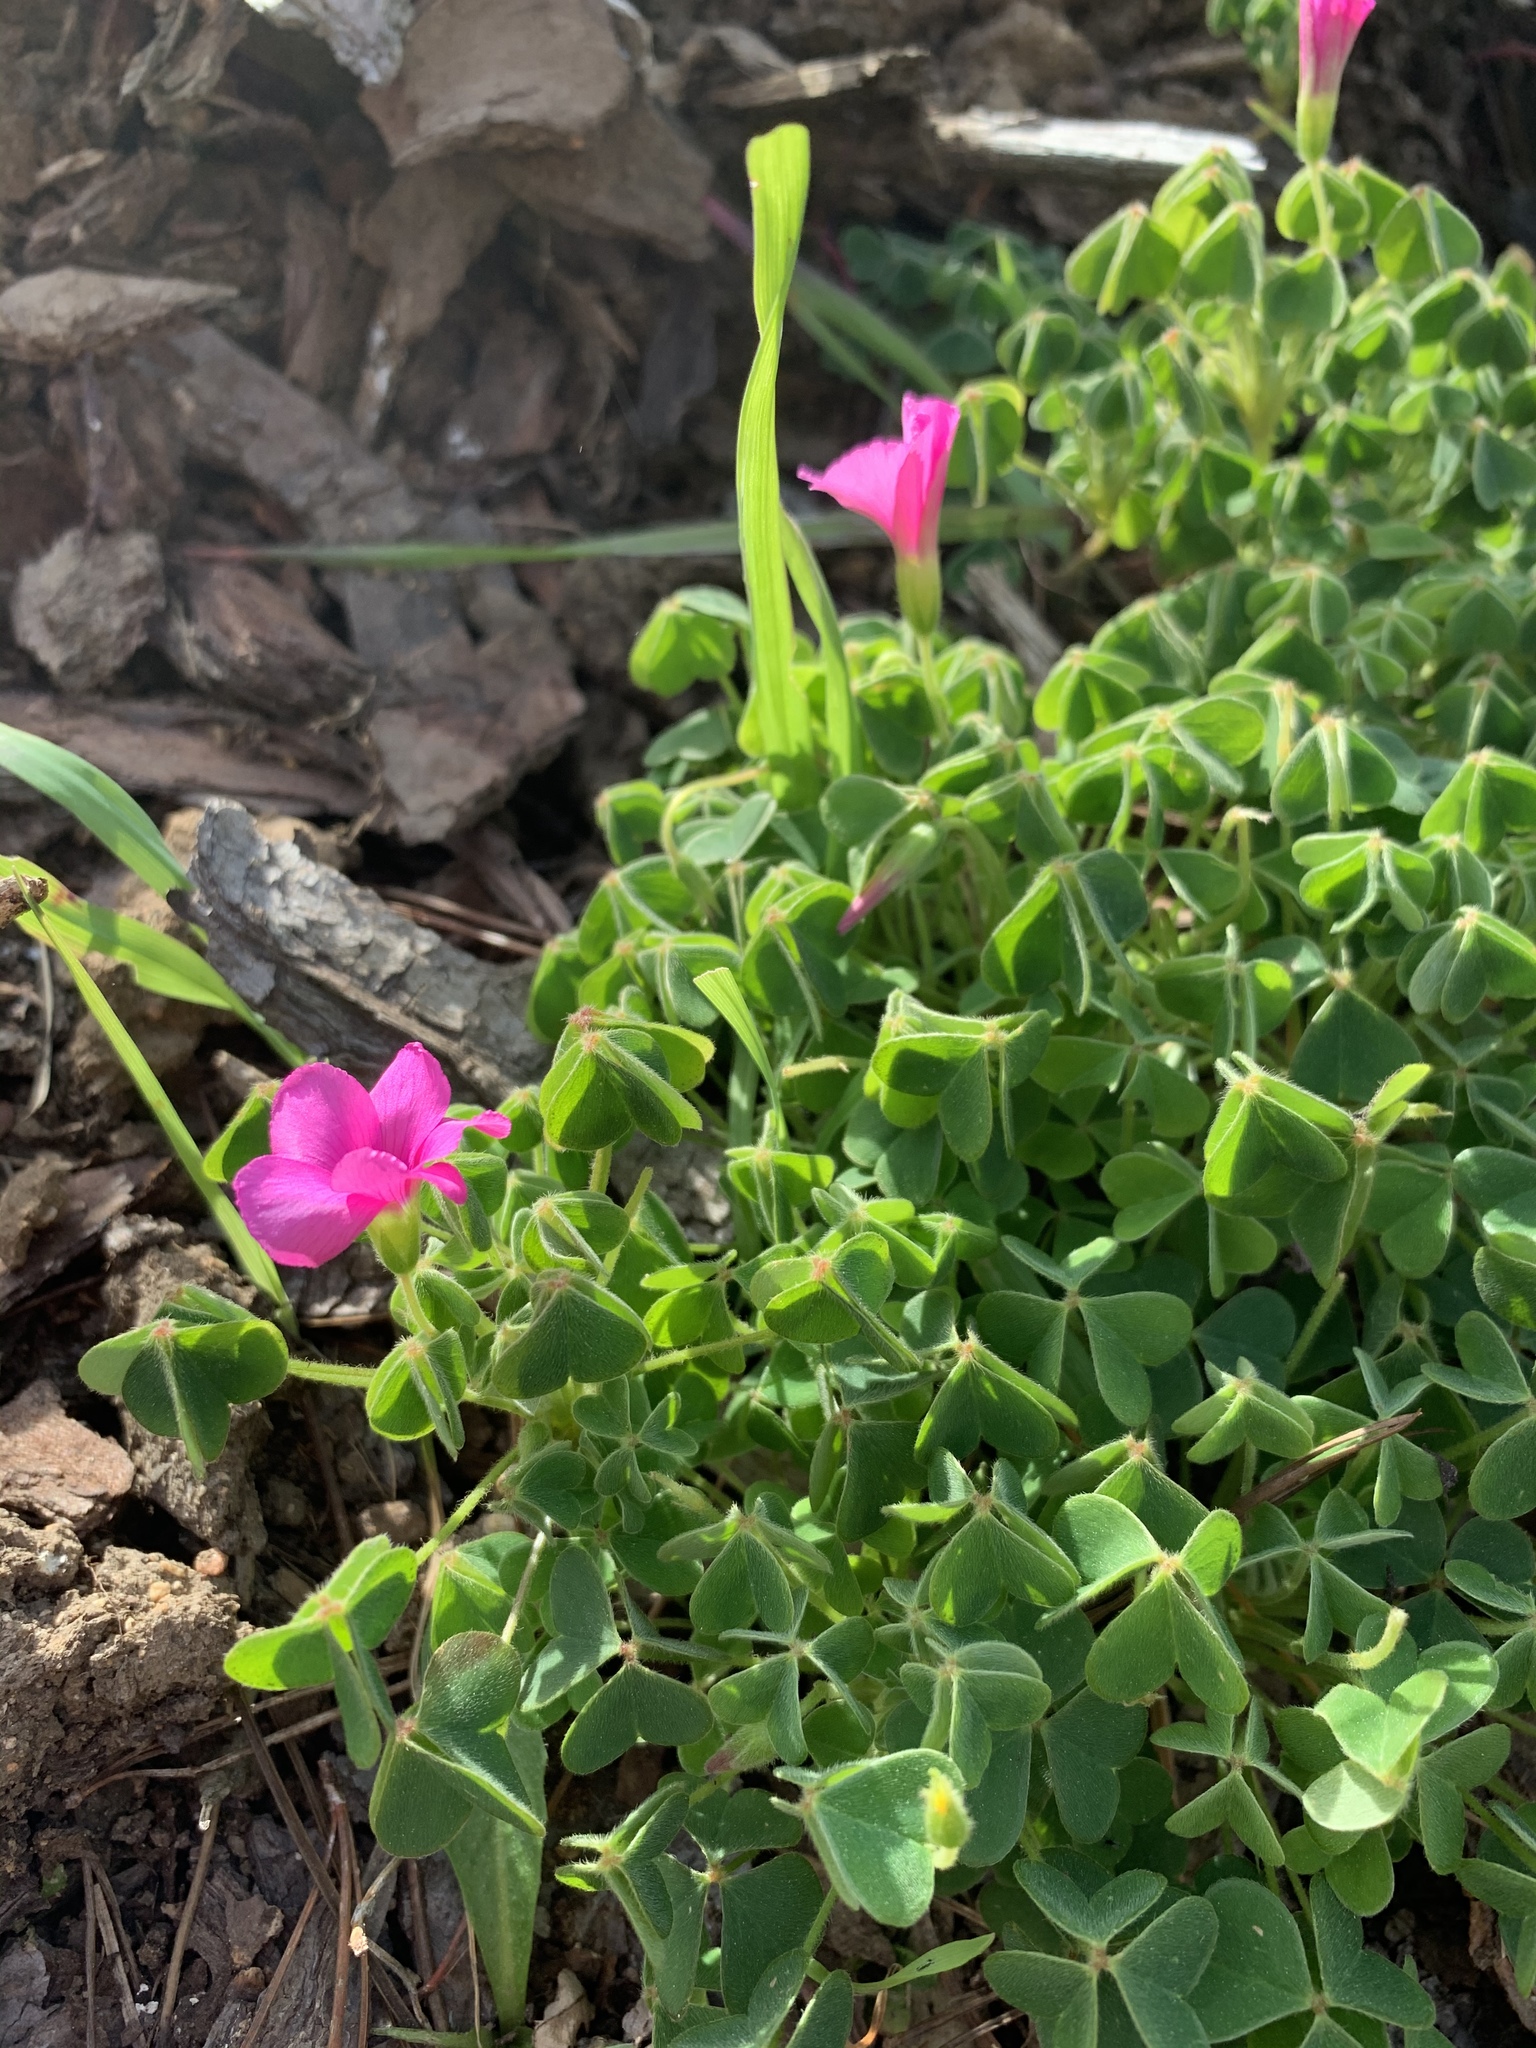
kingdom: Plantae
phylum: Tracheophyta
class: Magnoliopsida
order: Oxalidales
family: Oxalidaceae
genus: Oxalis
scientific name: Oxalis lanata
